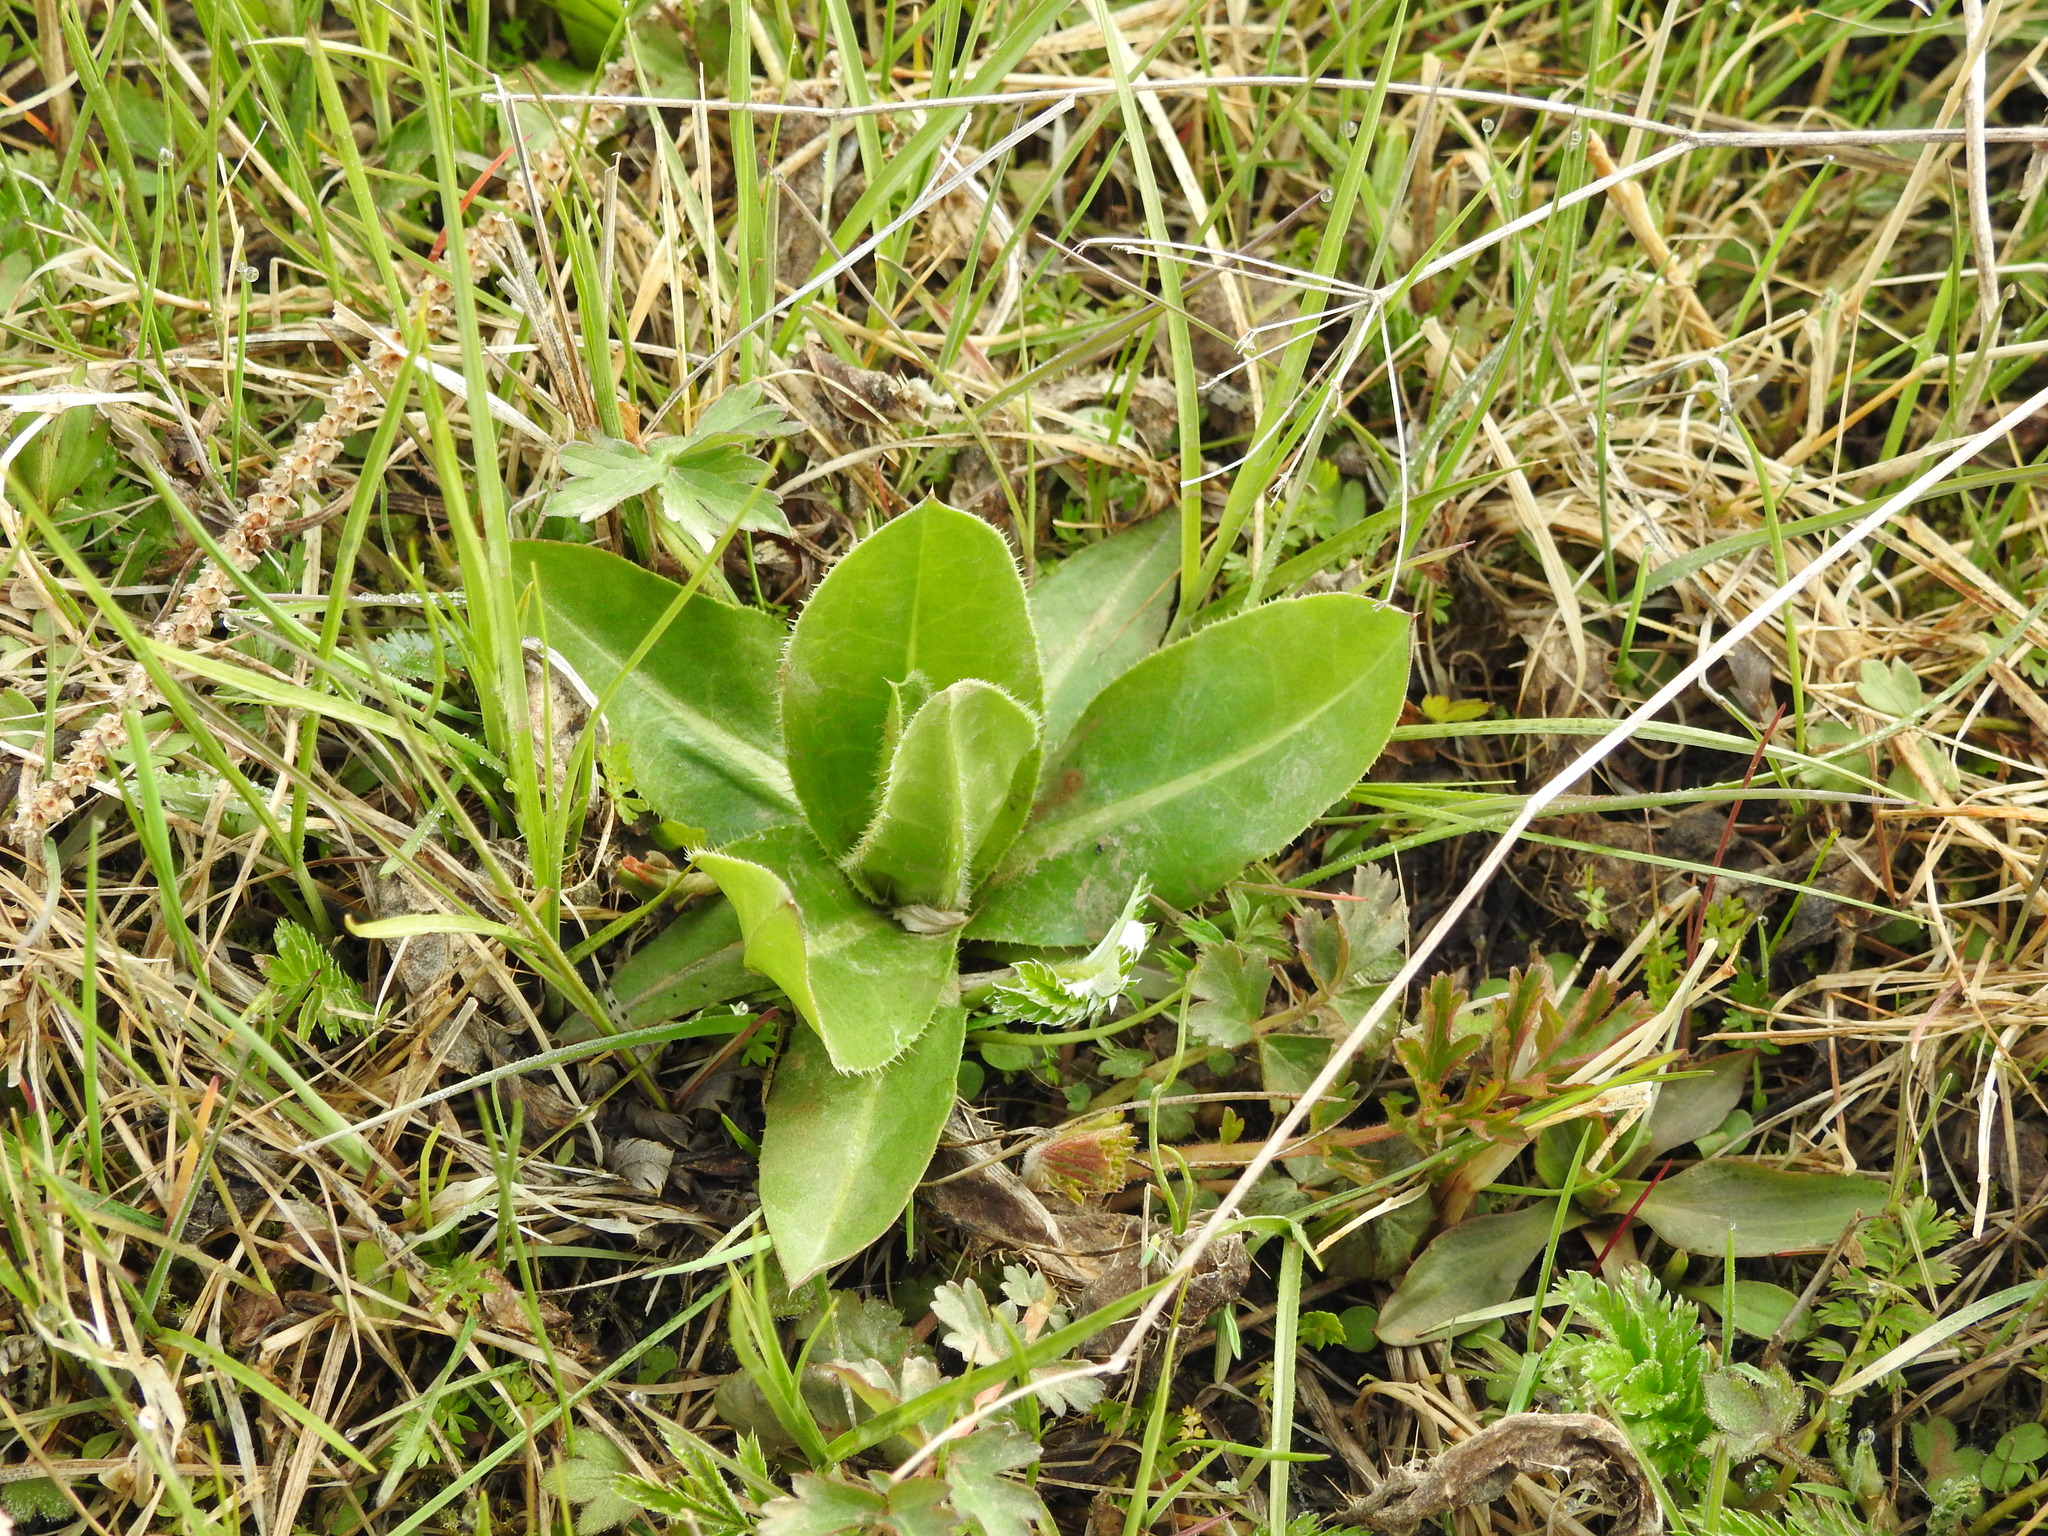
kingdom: Plantae
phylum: Tracheophyta
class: Magnoliopsida
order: Asterales
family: Asteraceae
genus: Cirsium
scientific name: Cirsium esculentum
